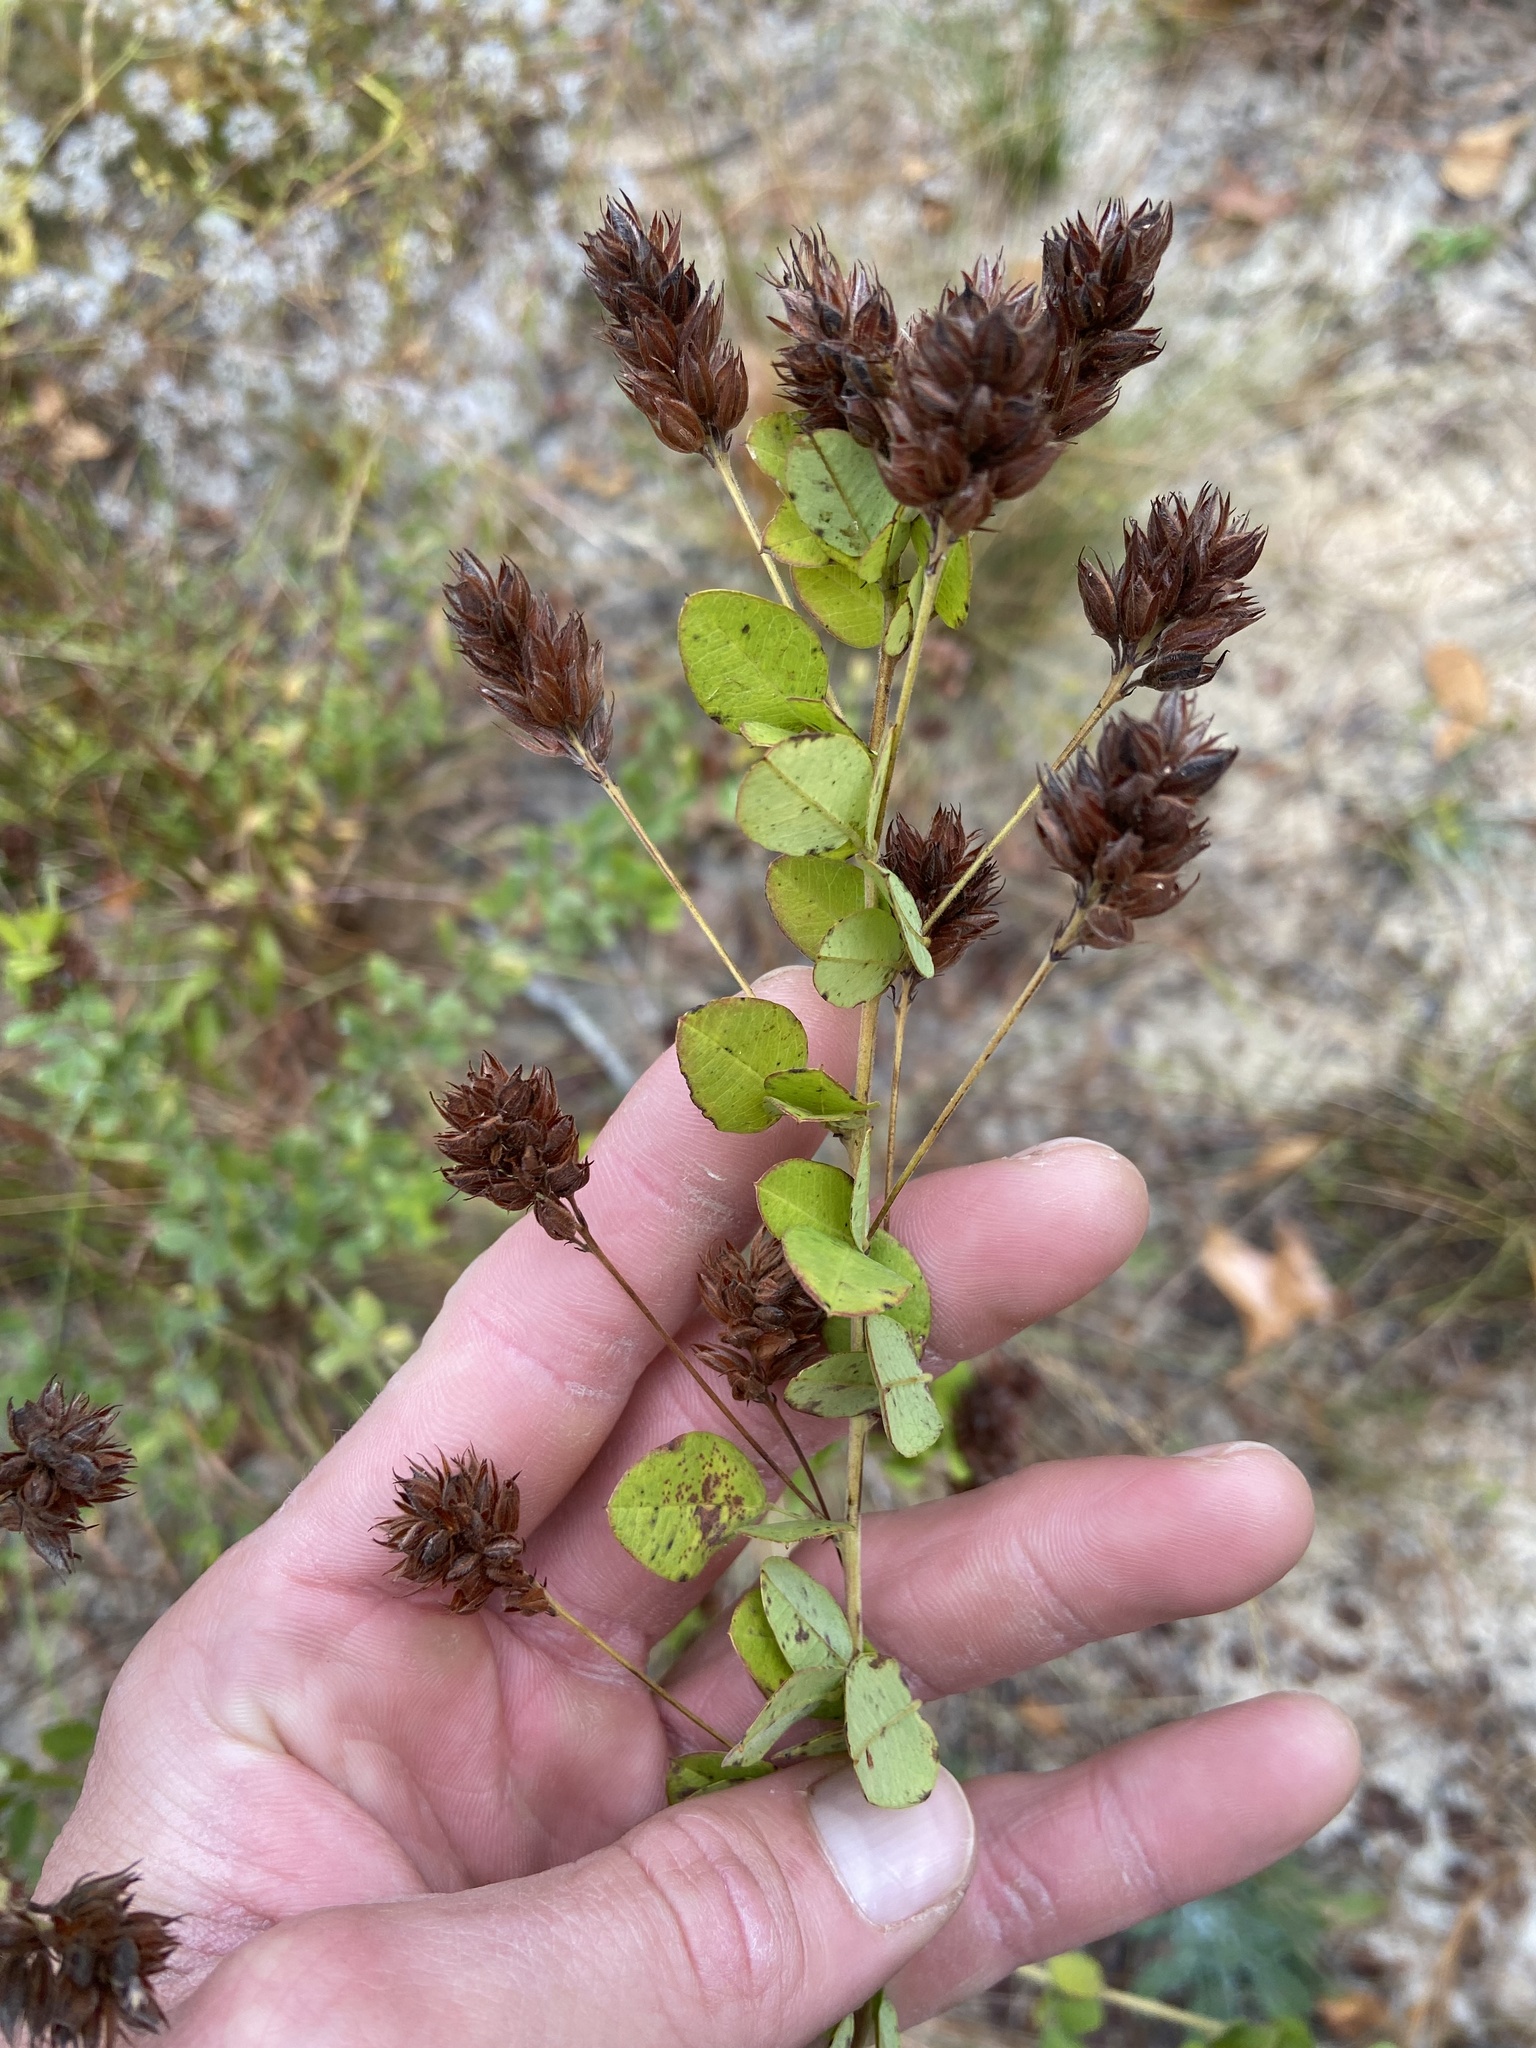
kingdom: Plantae
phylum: Tracheophyta
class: Magnoliopsida
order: Fabales
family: Fabaceae
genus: Lespedeza
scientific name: Lespedeza hirta
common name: Hairy lespedeza
